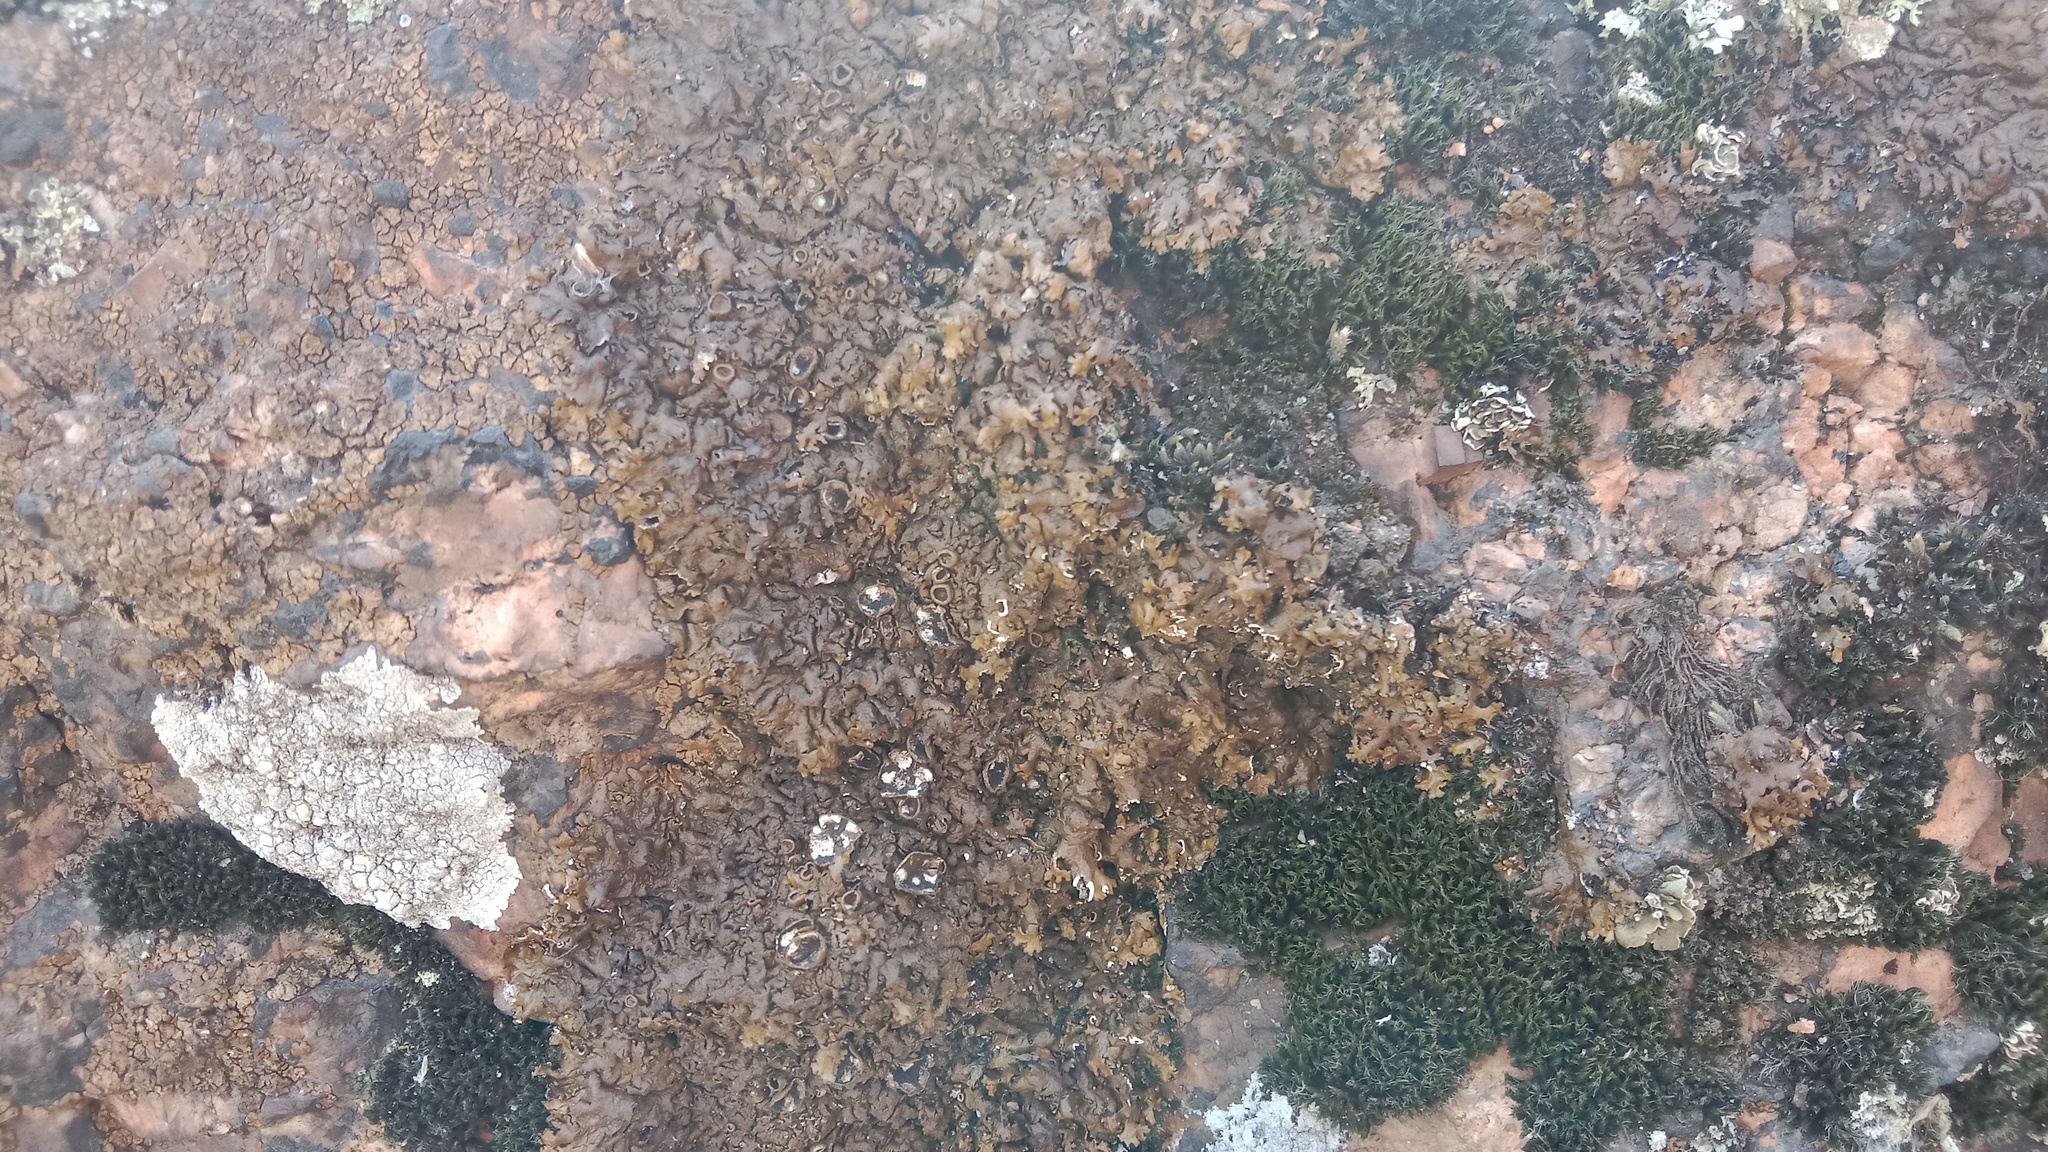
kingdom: Fungi
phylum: Ascomycota
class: Lecanoromycetes
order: Lecanorales
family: Parmeliaceae
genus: Xanthoparmelia
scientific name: Xanthoparmelia pulla
